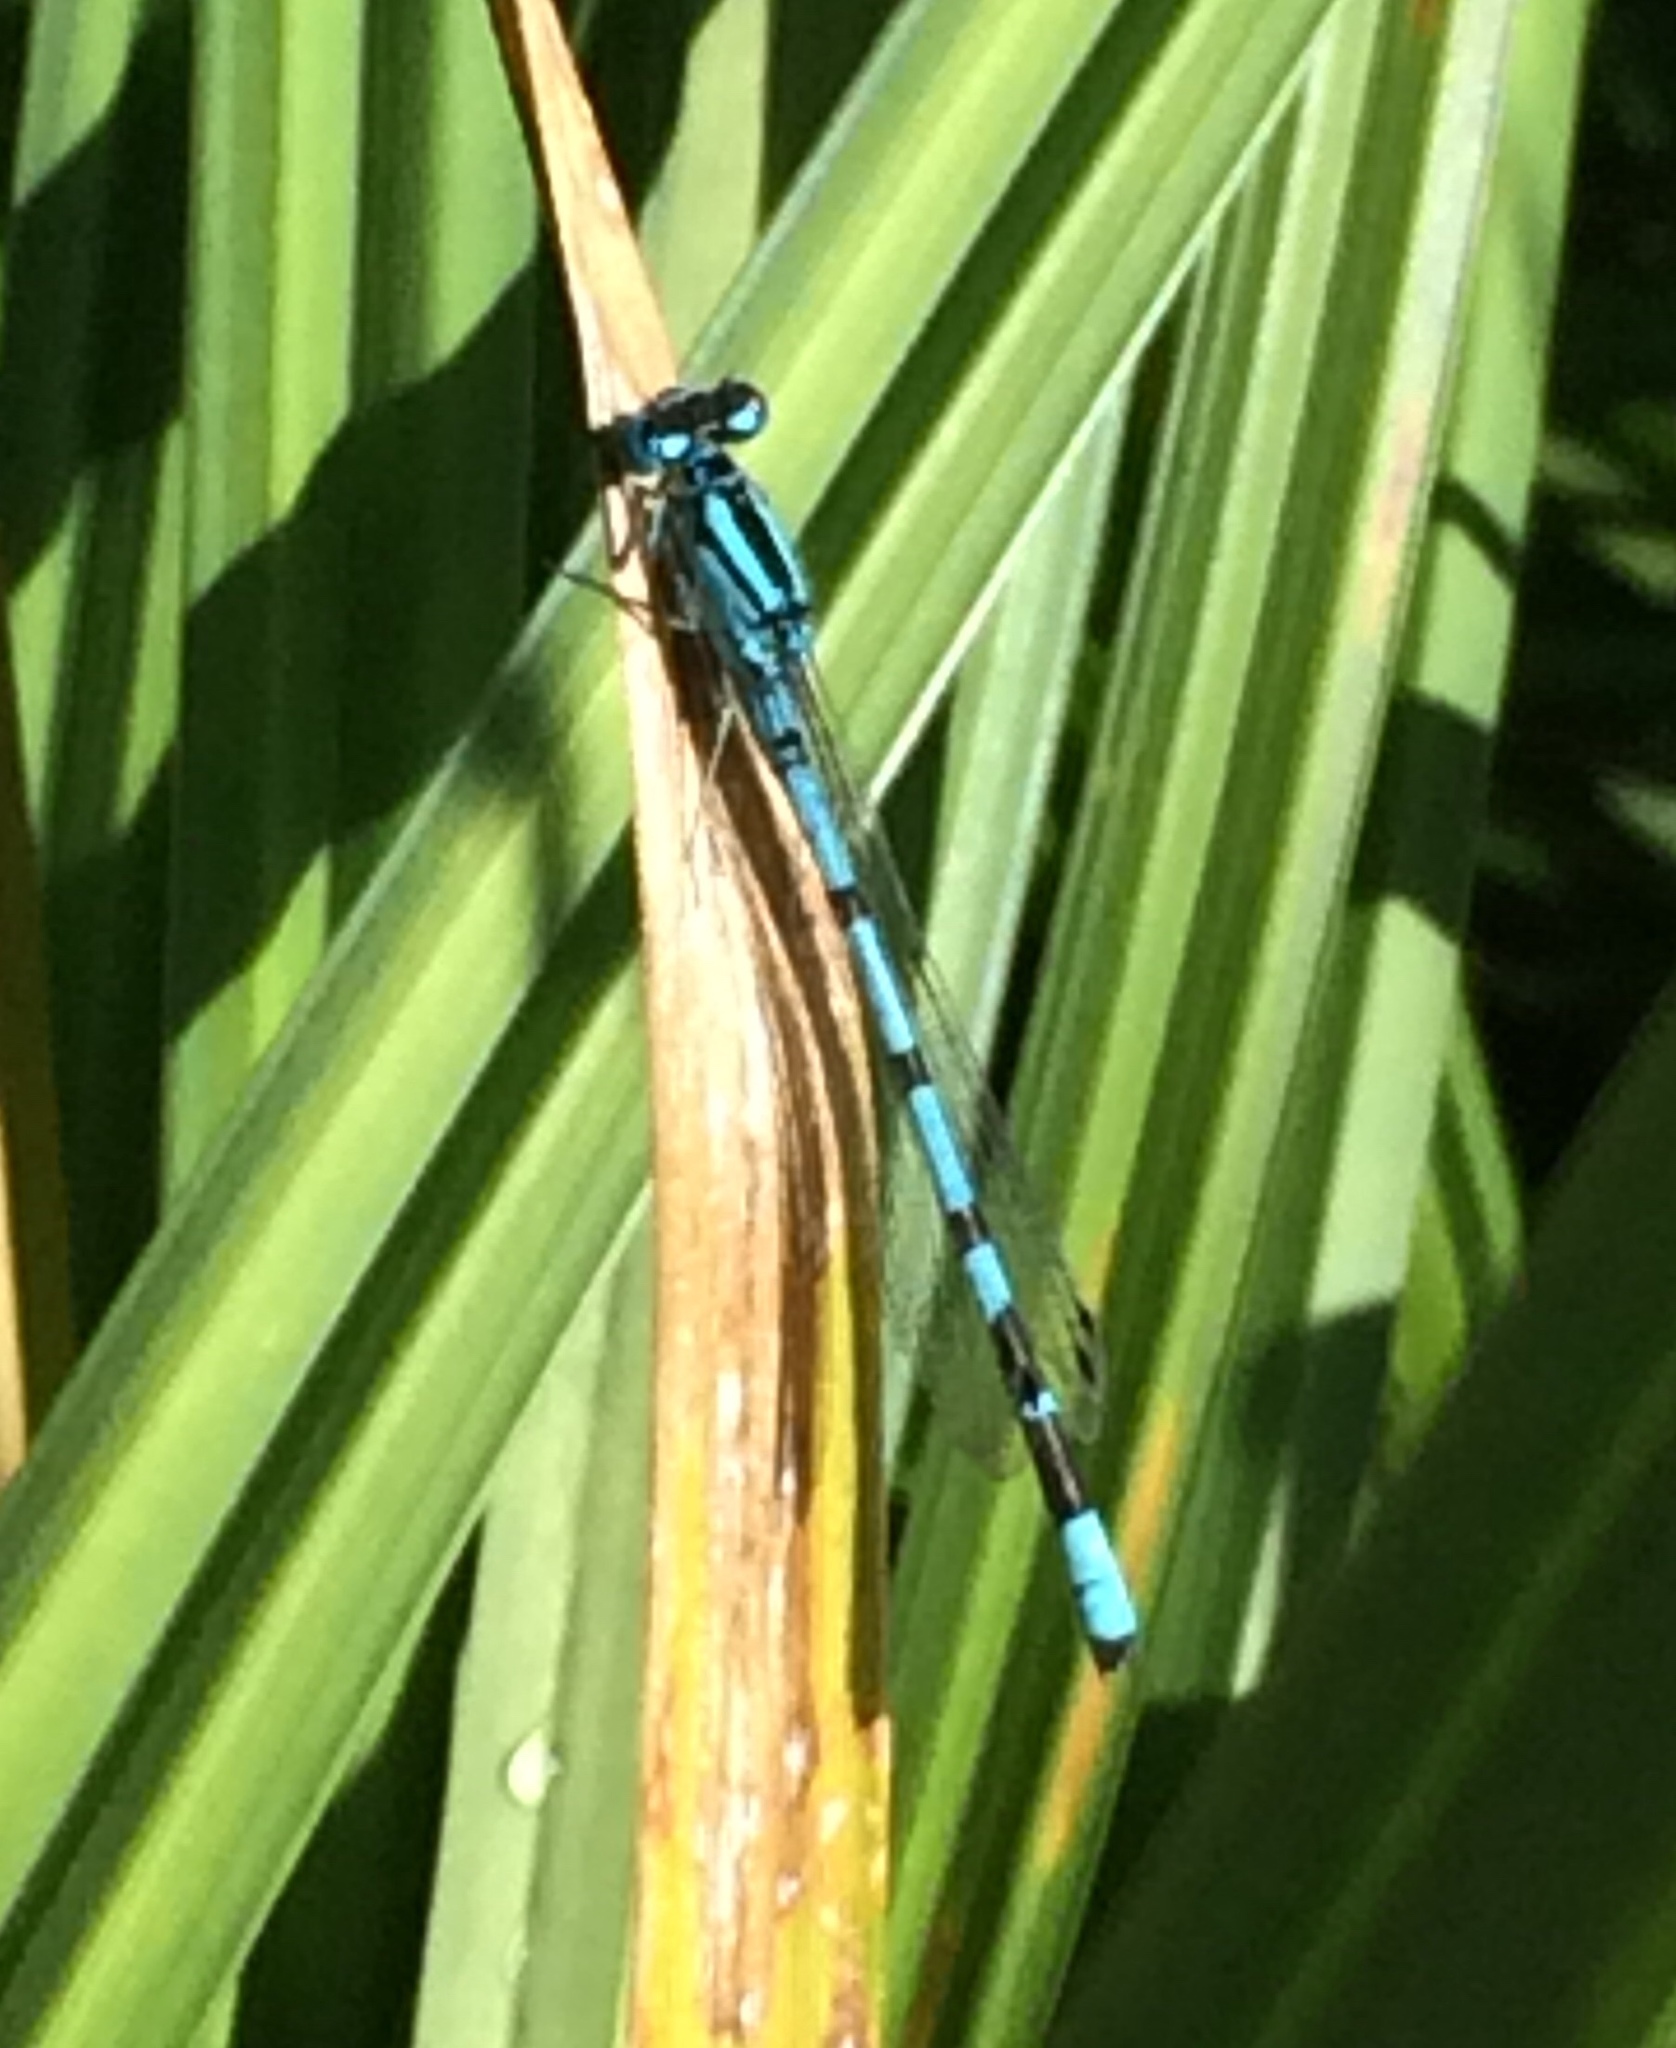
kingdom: Animalia
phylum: Arthropoda
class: Insecta
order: Odonata
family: Coenagrionidae
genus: Enallagma
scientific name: Enallagma cyathigerum
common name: Common blue damselfly
